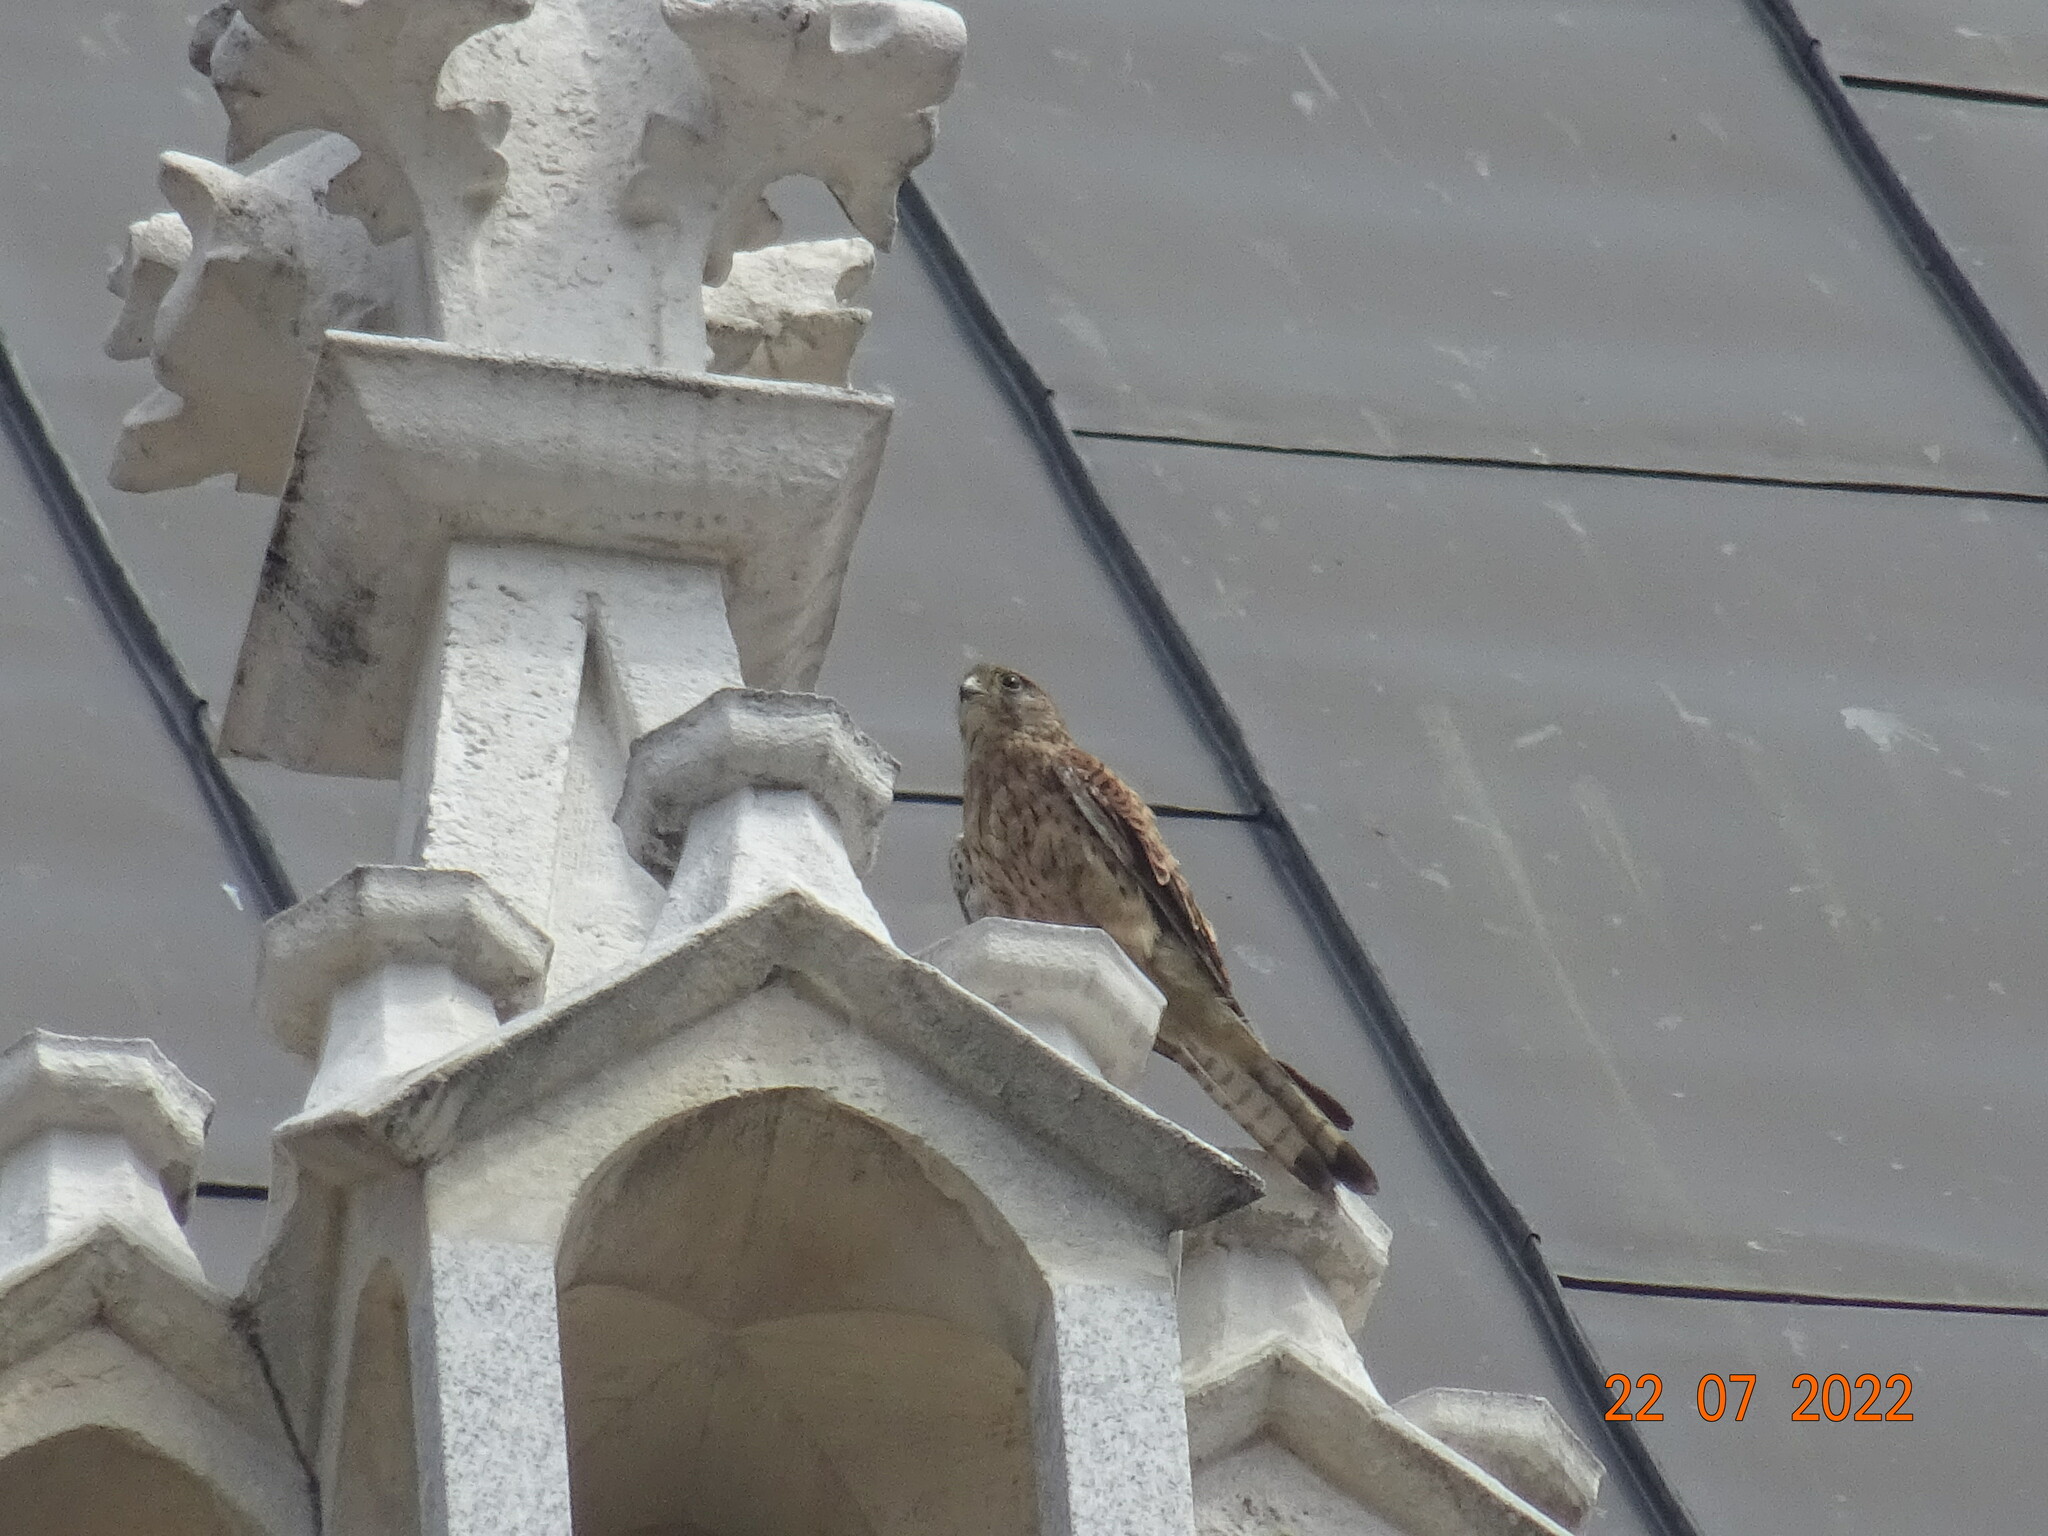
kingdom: Animalia
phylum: Chordata
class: Aves
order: Falconiformes
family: Falconidae
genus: Falco
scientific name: Falco tinnunculus
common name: Common kestrel
